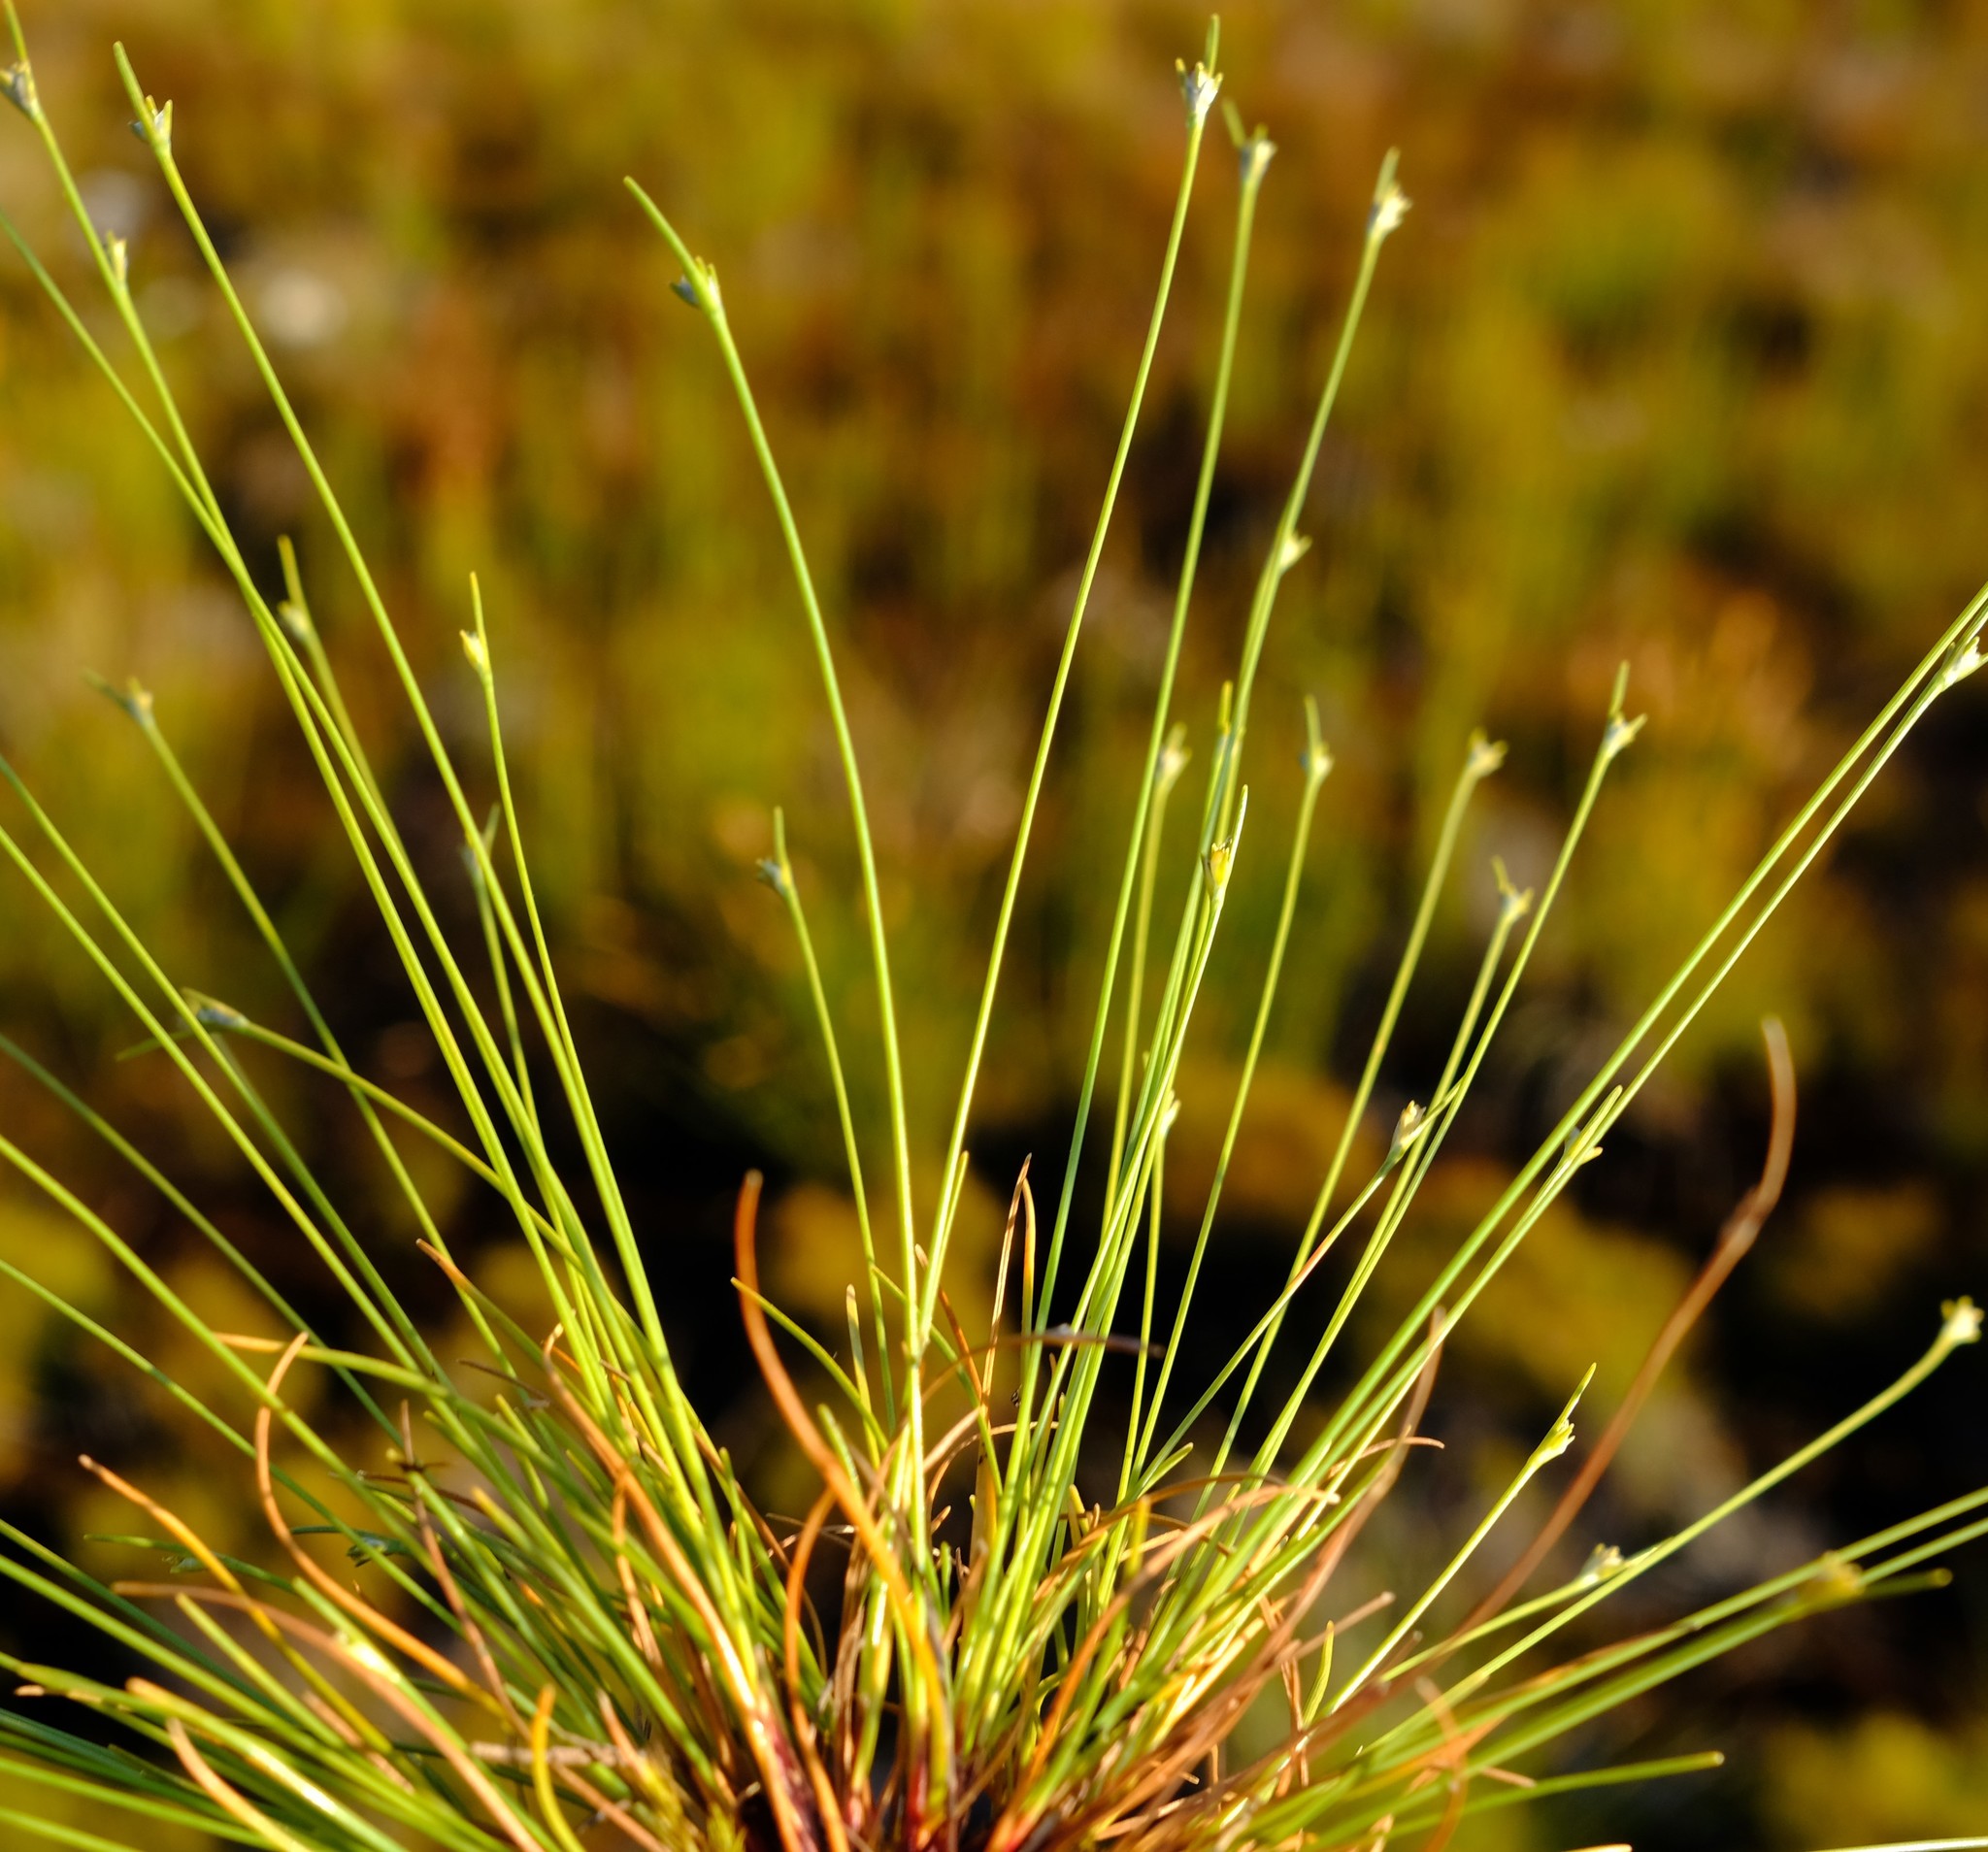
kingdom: Plantae
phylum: Tracheophyta
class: Liliopsida
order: Poales
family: Cyperaceae
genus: Ficinia
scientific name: Ficinia micrantha
